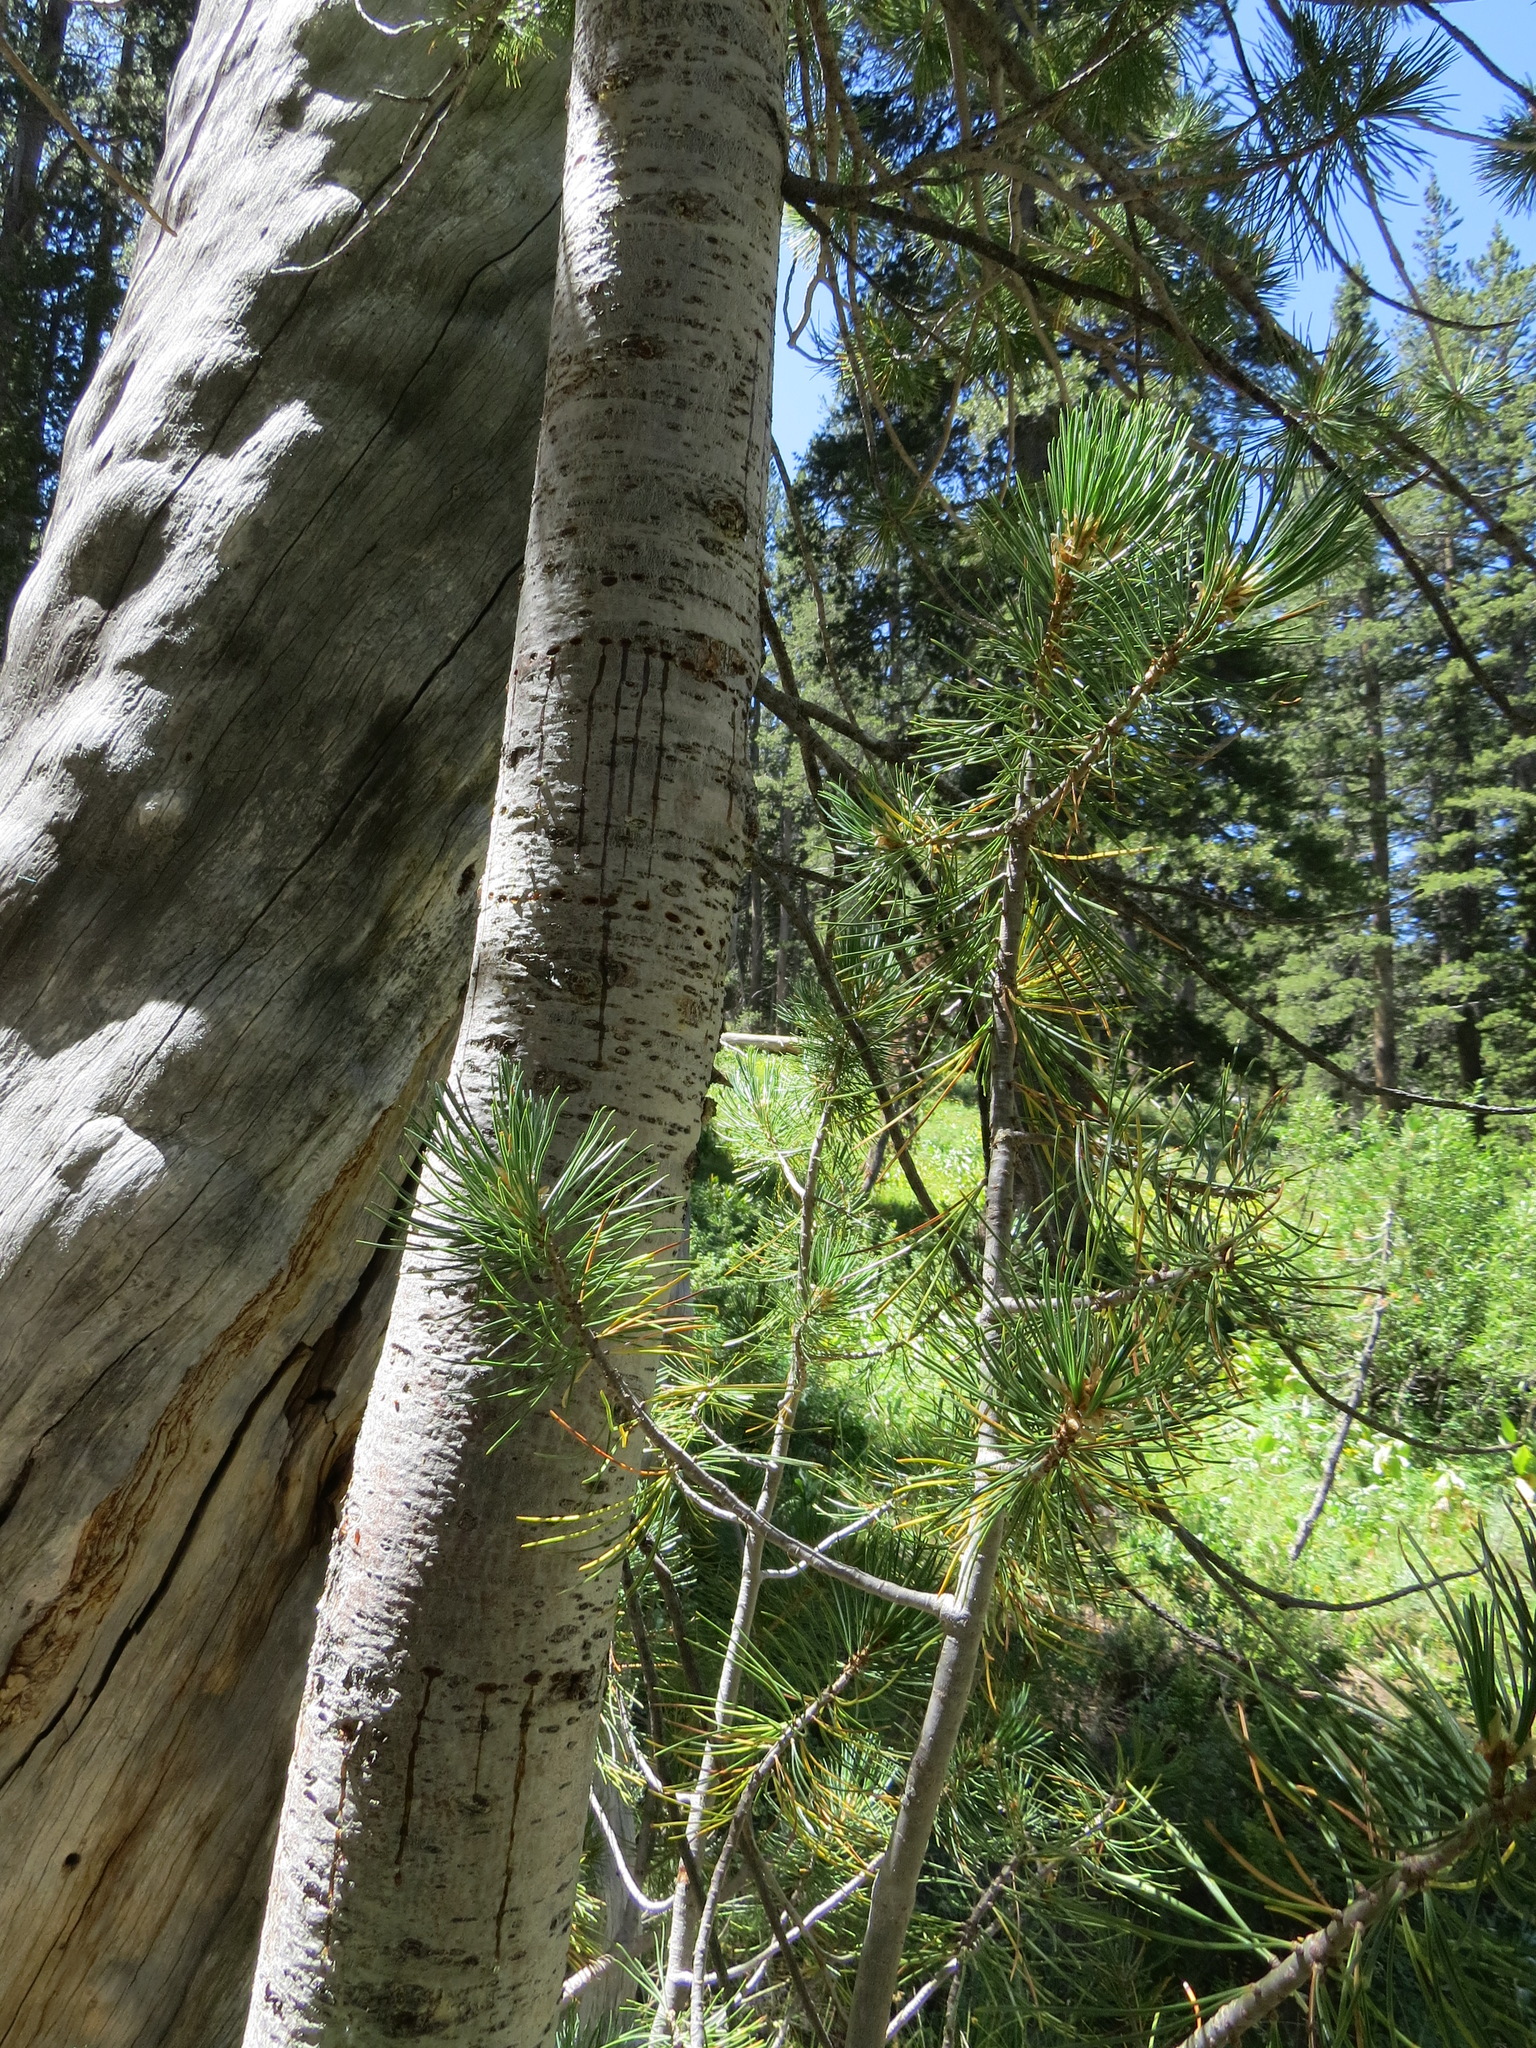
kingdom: Animalia
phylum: Chordata
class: Aves
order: Piciformes
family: Picidae
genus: Sphyrapicus
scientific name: Sphyrapicus
